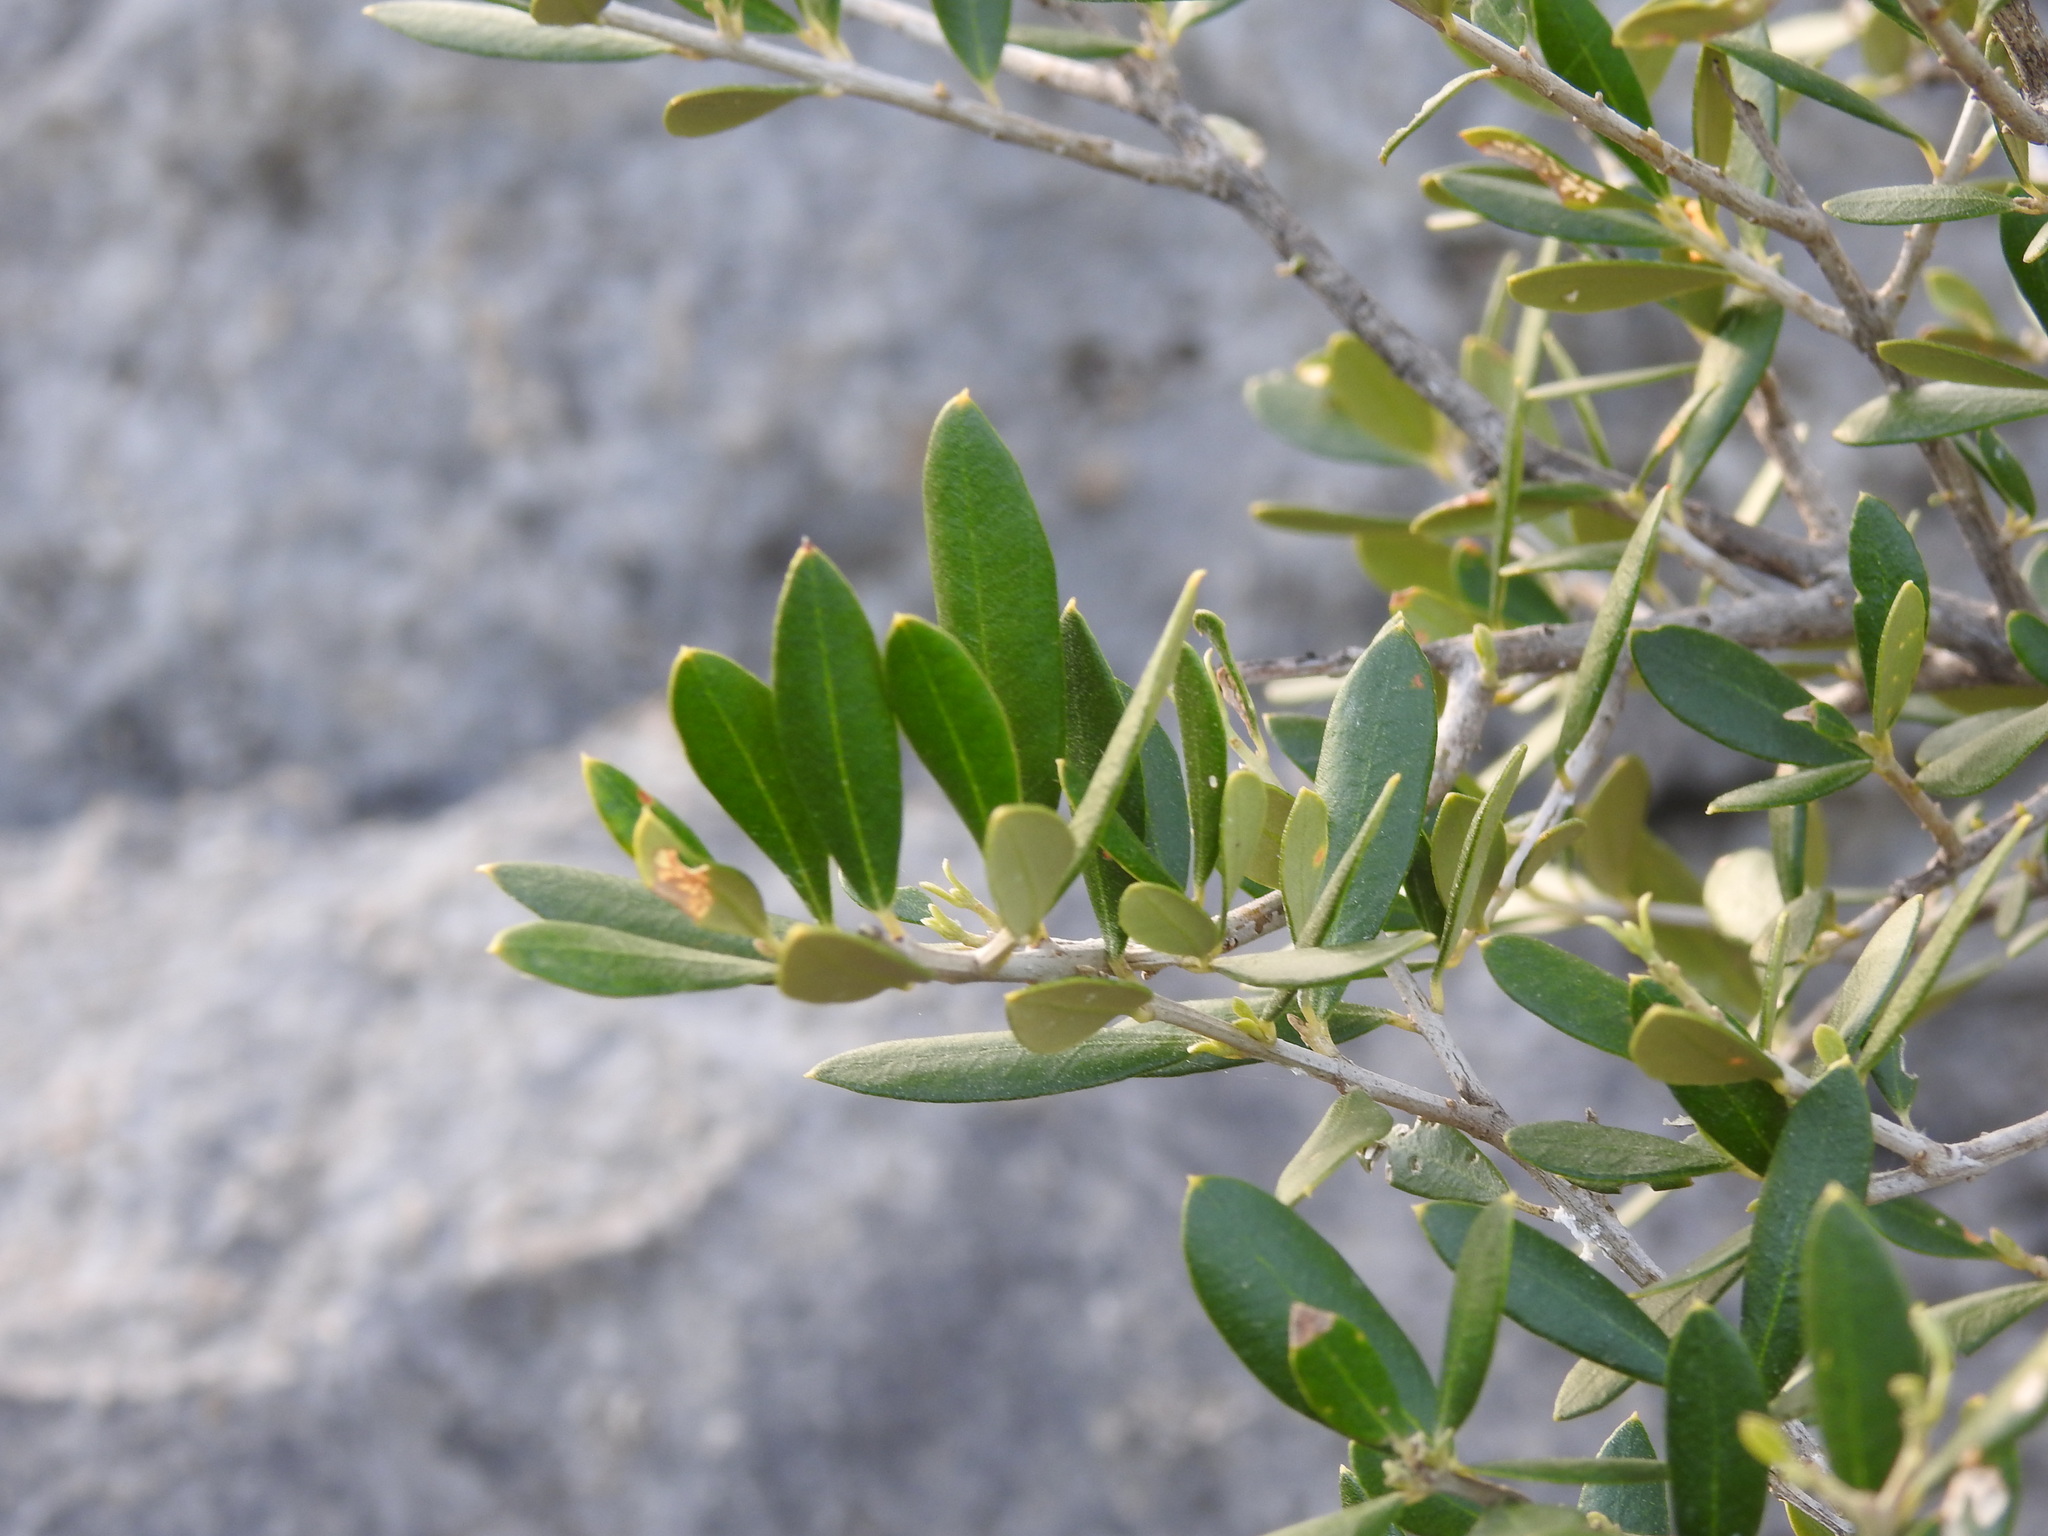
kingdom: Plantae
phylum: Tracheophyta
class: Magnoliopsida
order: Lamiales
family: Oleaceae
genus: Olea
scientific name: Olea europaea
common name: Olive
